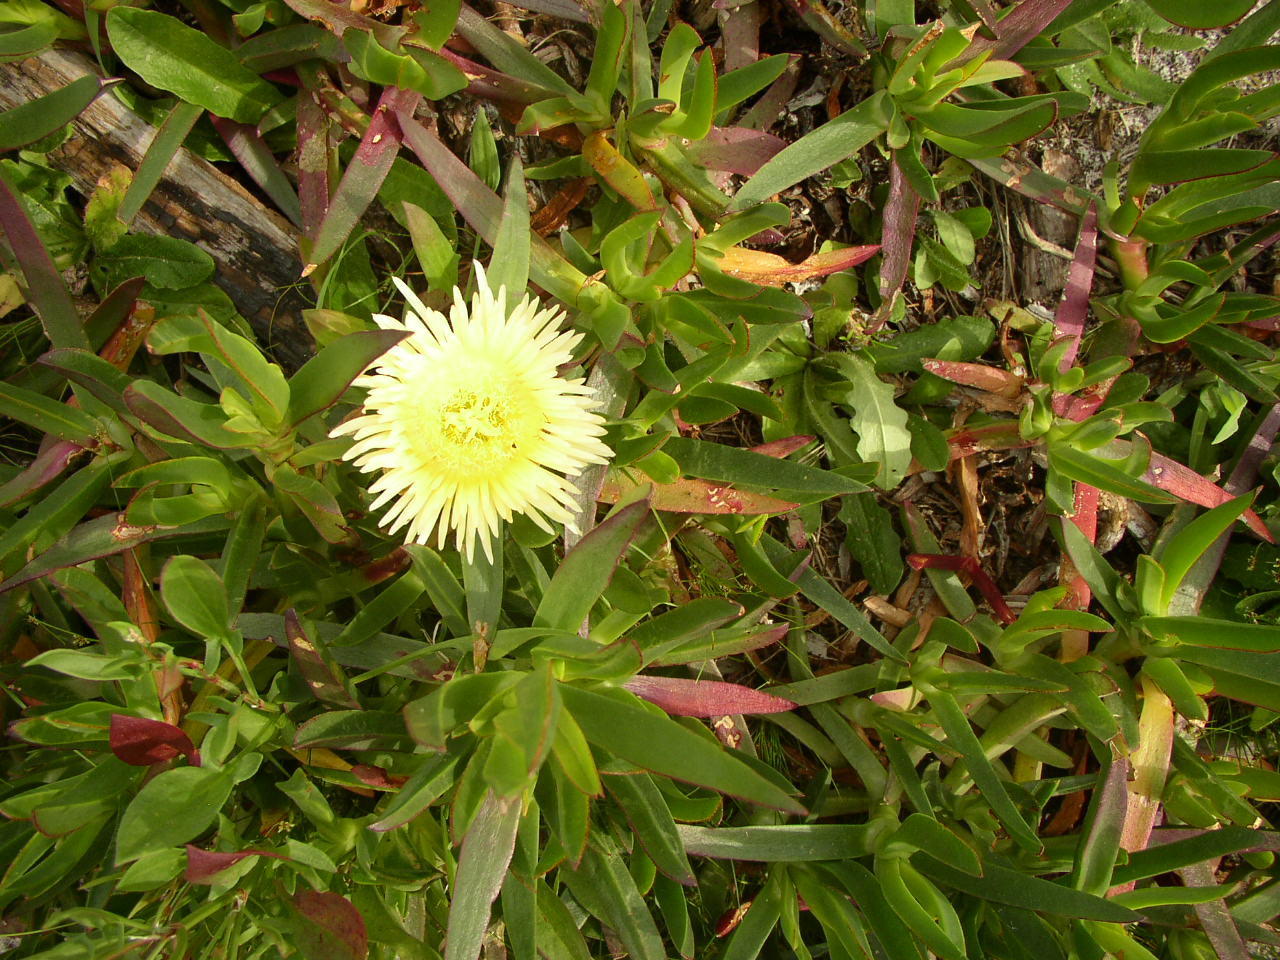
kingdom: Plantae
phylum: Tracheophyta
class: Magnoliopsida
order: Caryophyllales
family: Aizoaceae
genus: Carpobrotus
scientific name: Carpobrotus edulis
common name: Hottentot-fig
